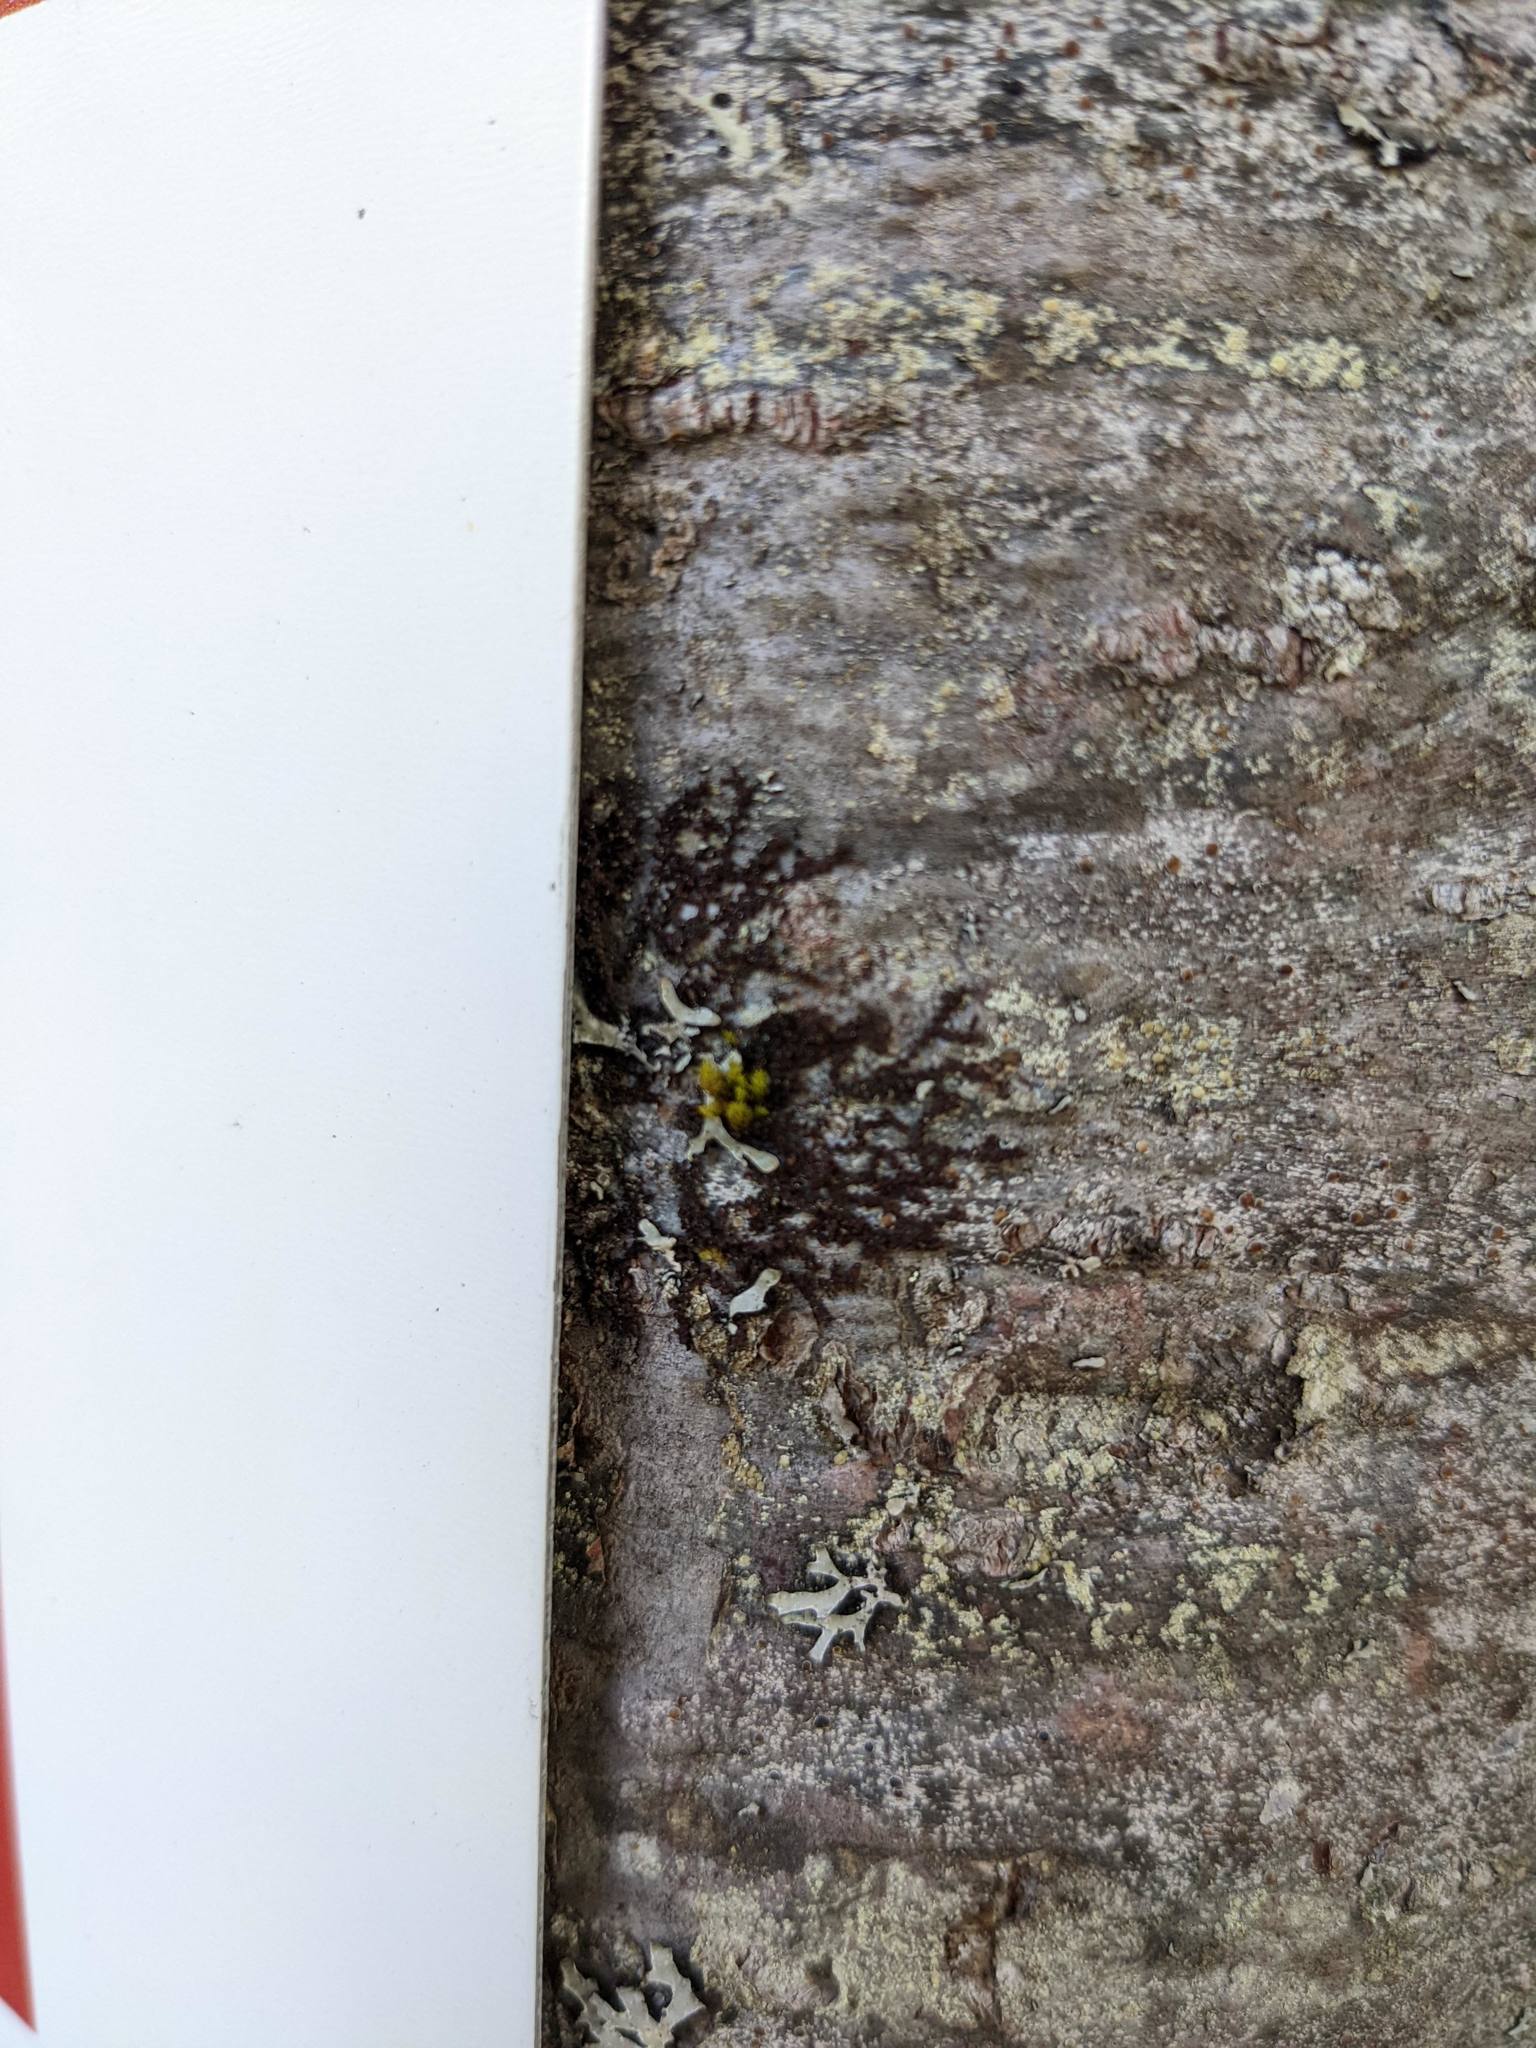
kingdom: Plantae
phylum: Bryophyta
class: Bryopsida
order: Orthotrichales
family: Orthotrichaceae
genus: Ulota
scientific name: Ulota crispa
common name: Crisped pincushion moss
